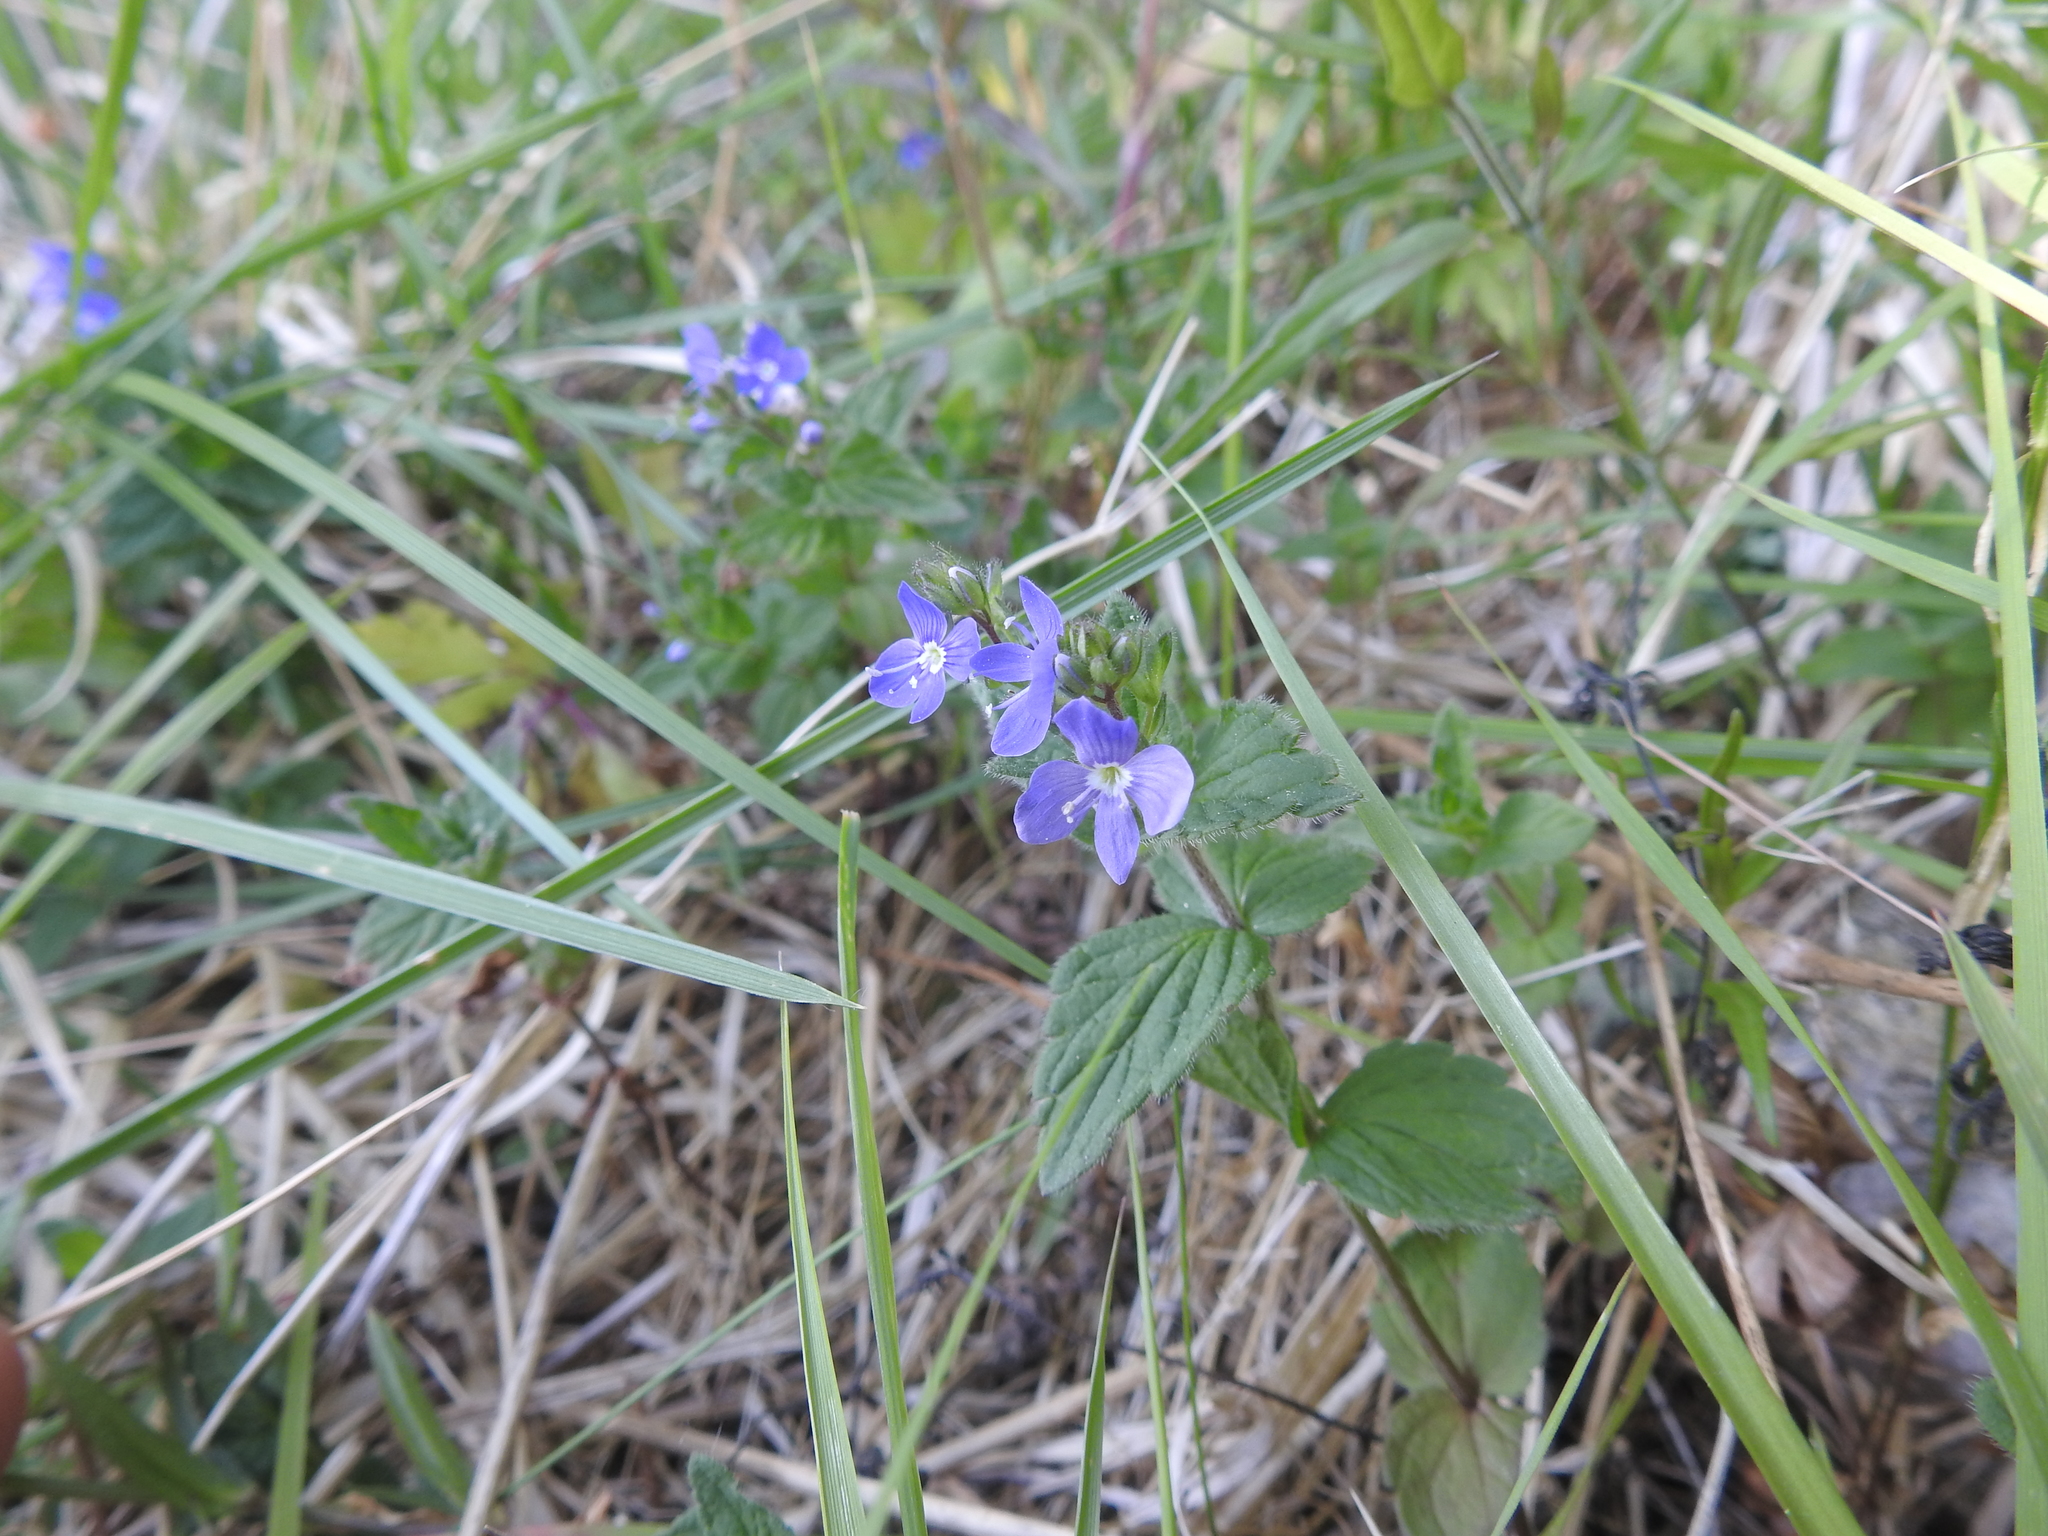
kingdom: Plantae
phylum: Tracheophyta
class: Magnoliopsida
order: Lamiales
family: Plantaginaceae
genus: Veronica
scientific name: Veronica chamaedrys
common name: Germander speedwell
